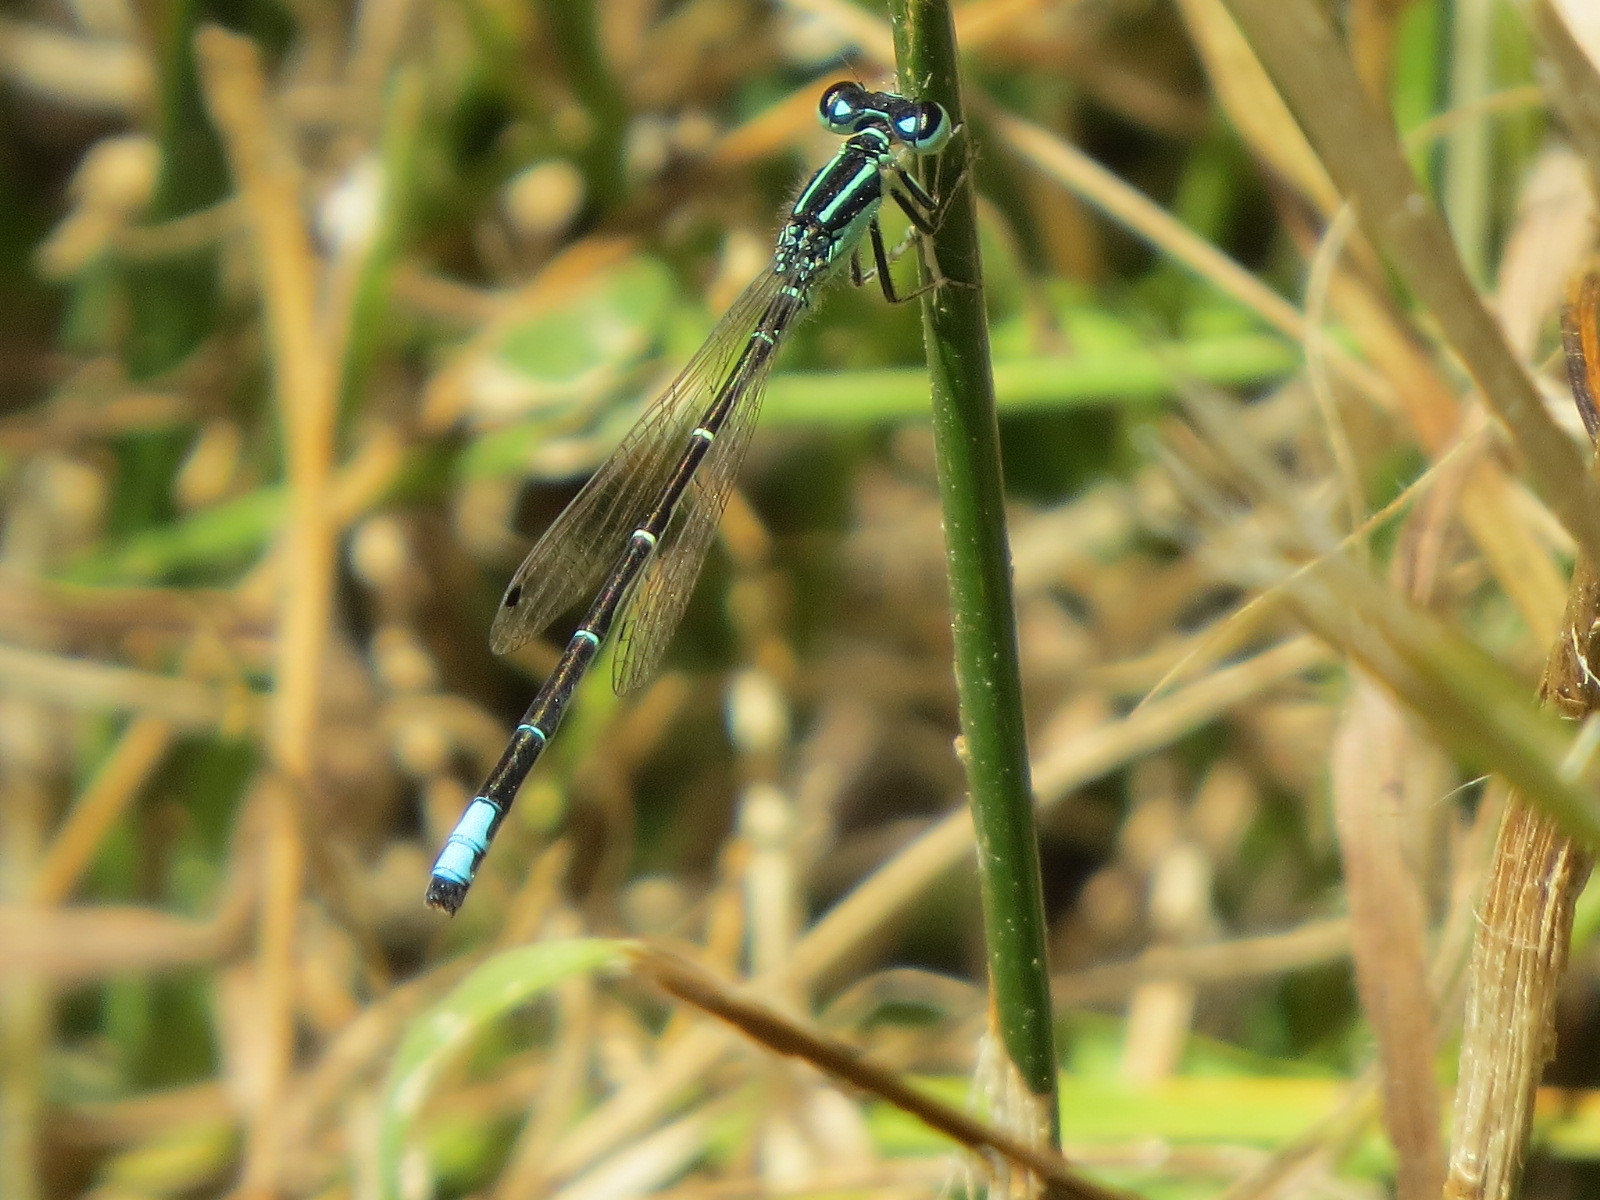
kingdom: Animalia
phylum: Arthropoda
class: Insecta
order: Odonata
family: Coenagrionidae
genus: Ischnura
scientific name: Ischnura perparva
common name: Western forktail
